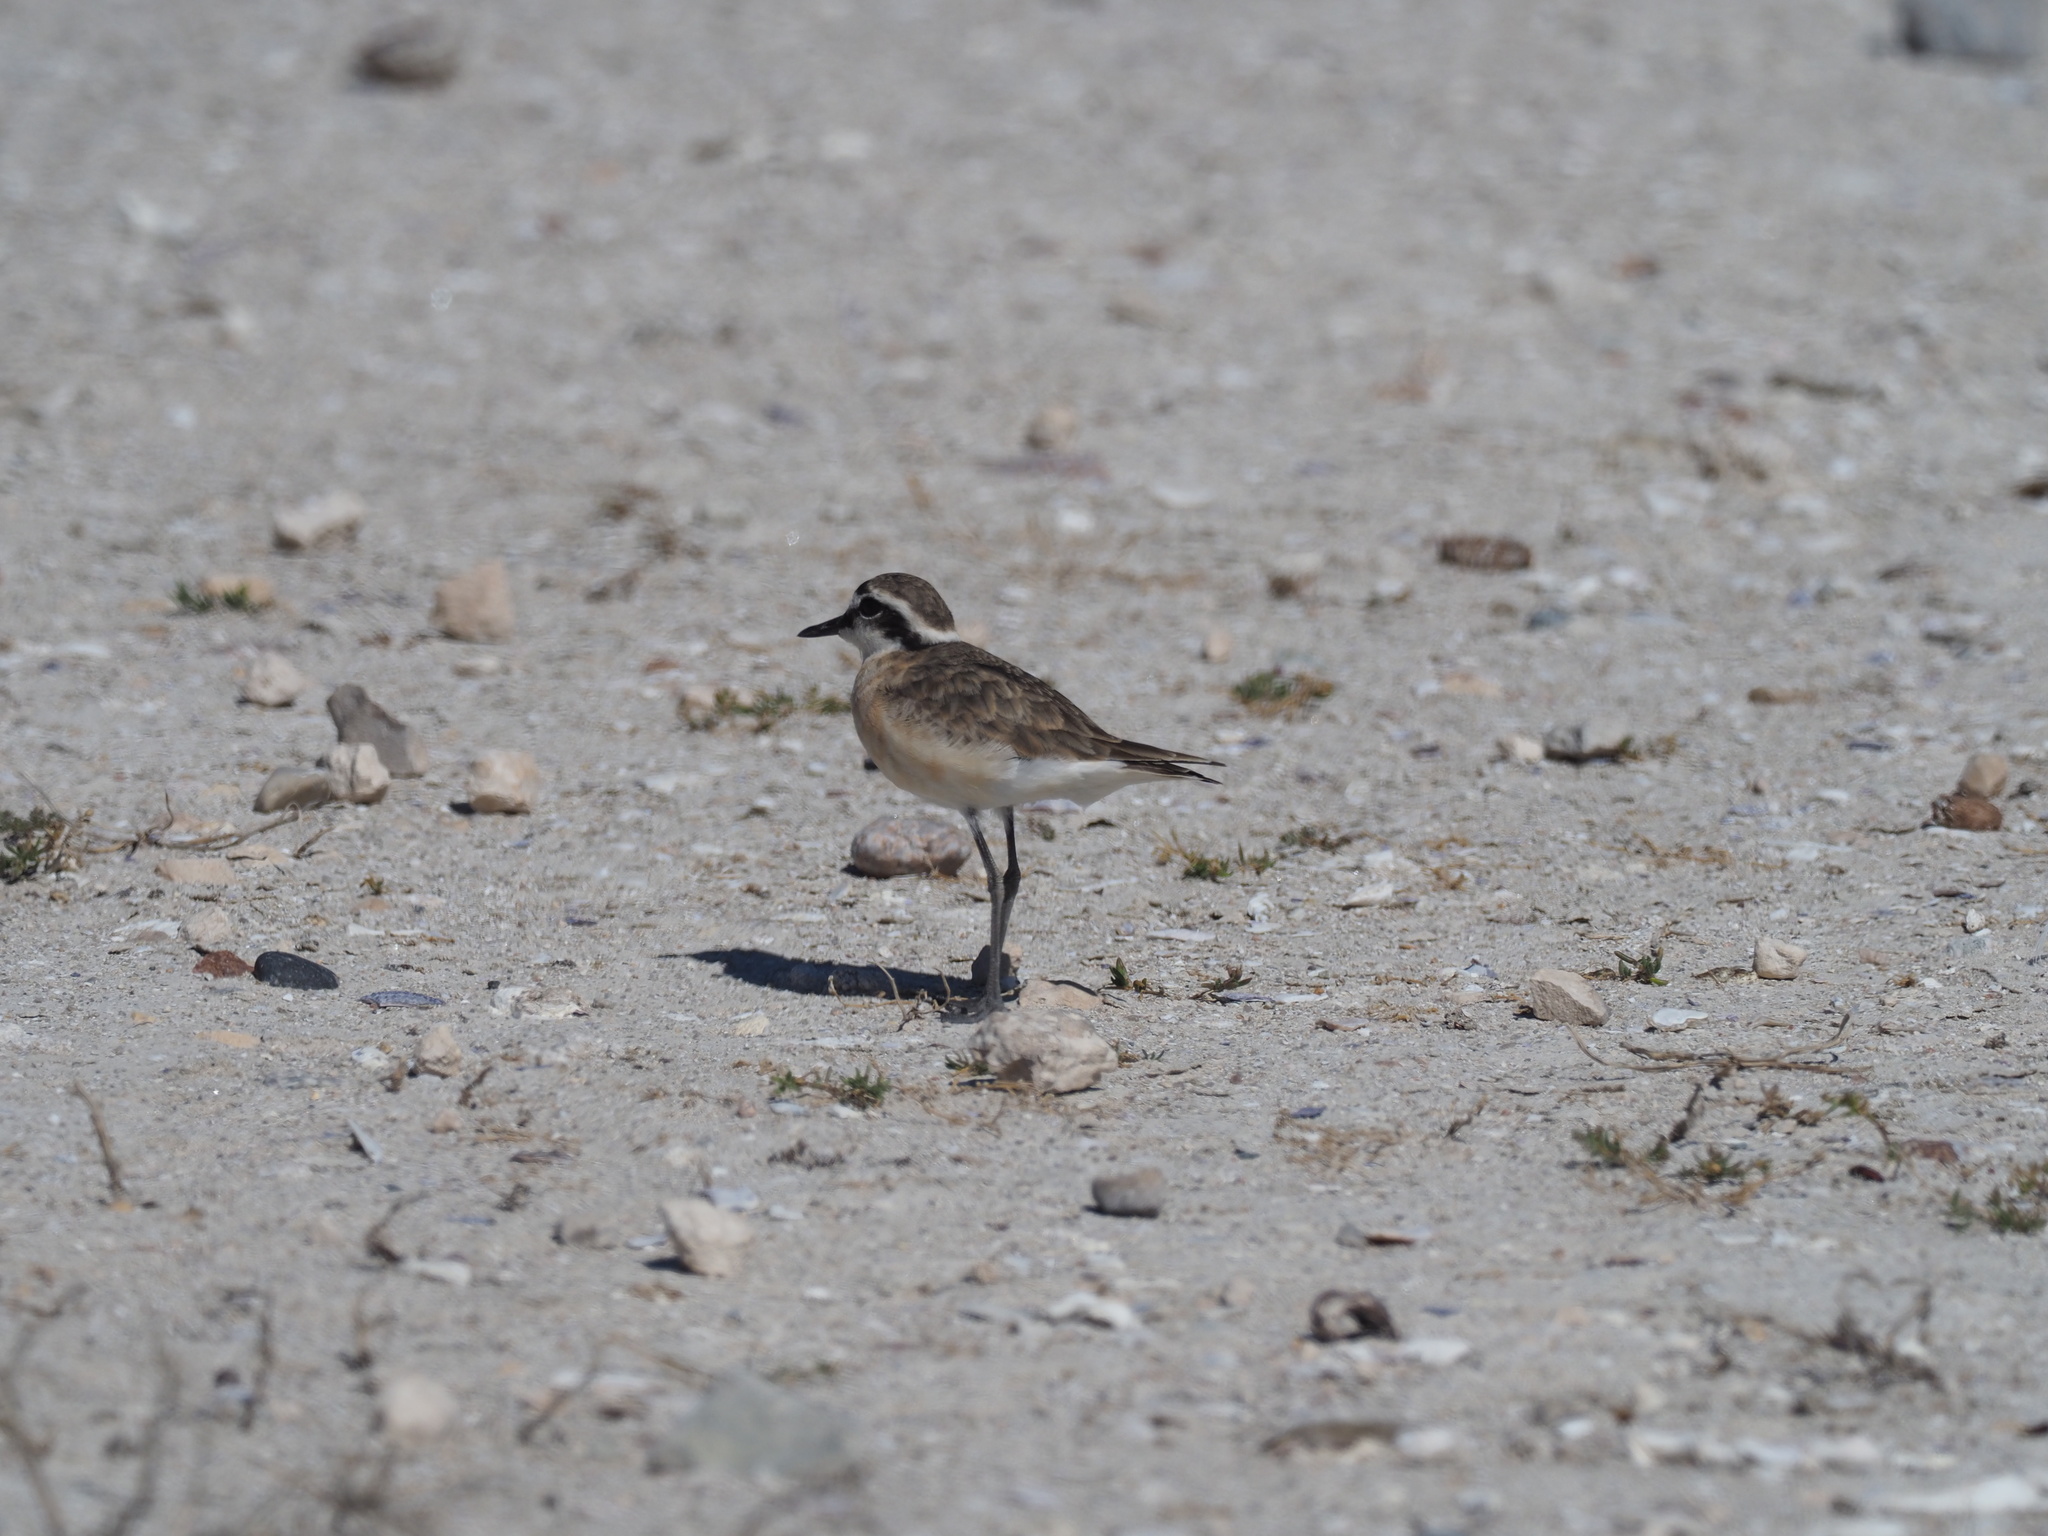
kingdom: Animalia
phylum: Chordata
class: Aves
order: Charadriiformes
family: Charadriidae
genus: Anarhynchus
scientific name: Anarhynchus
